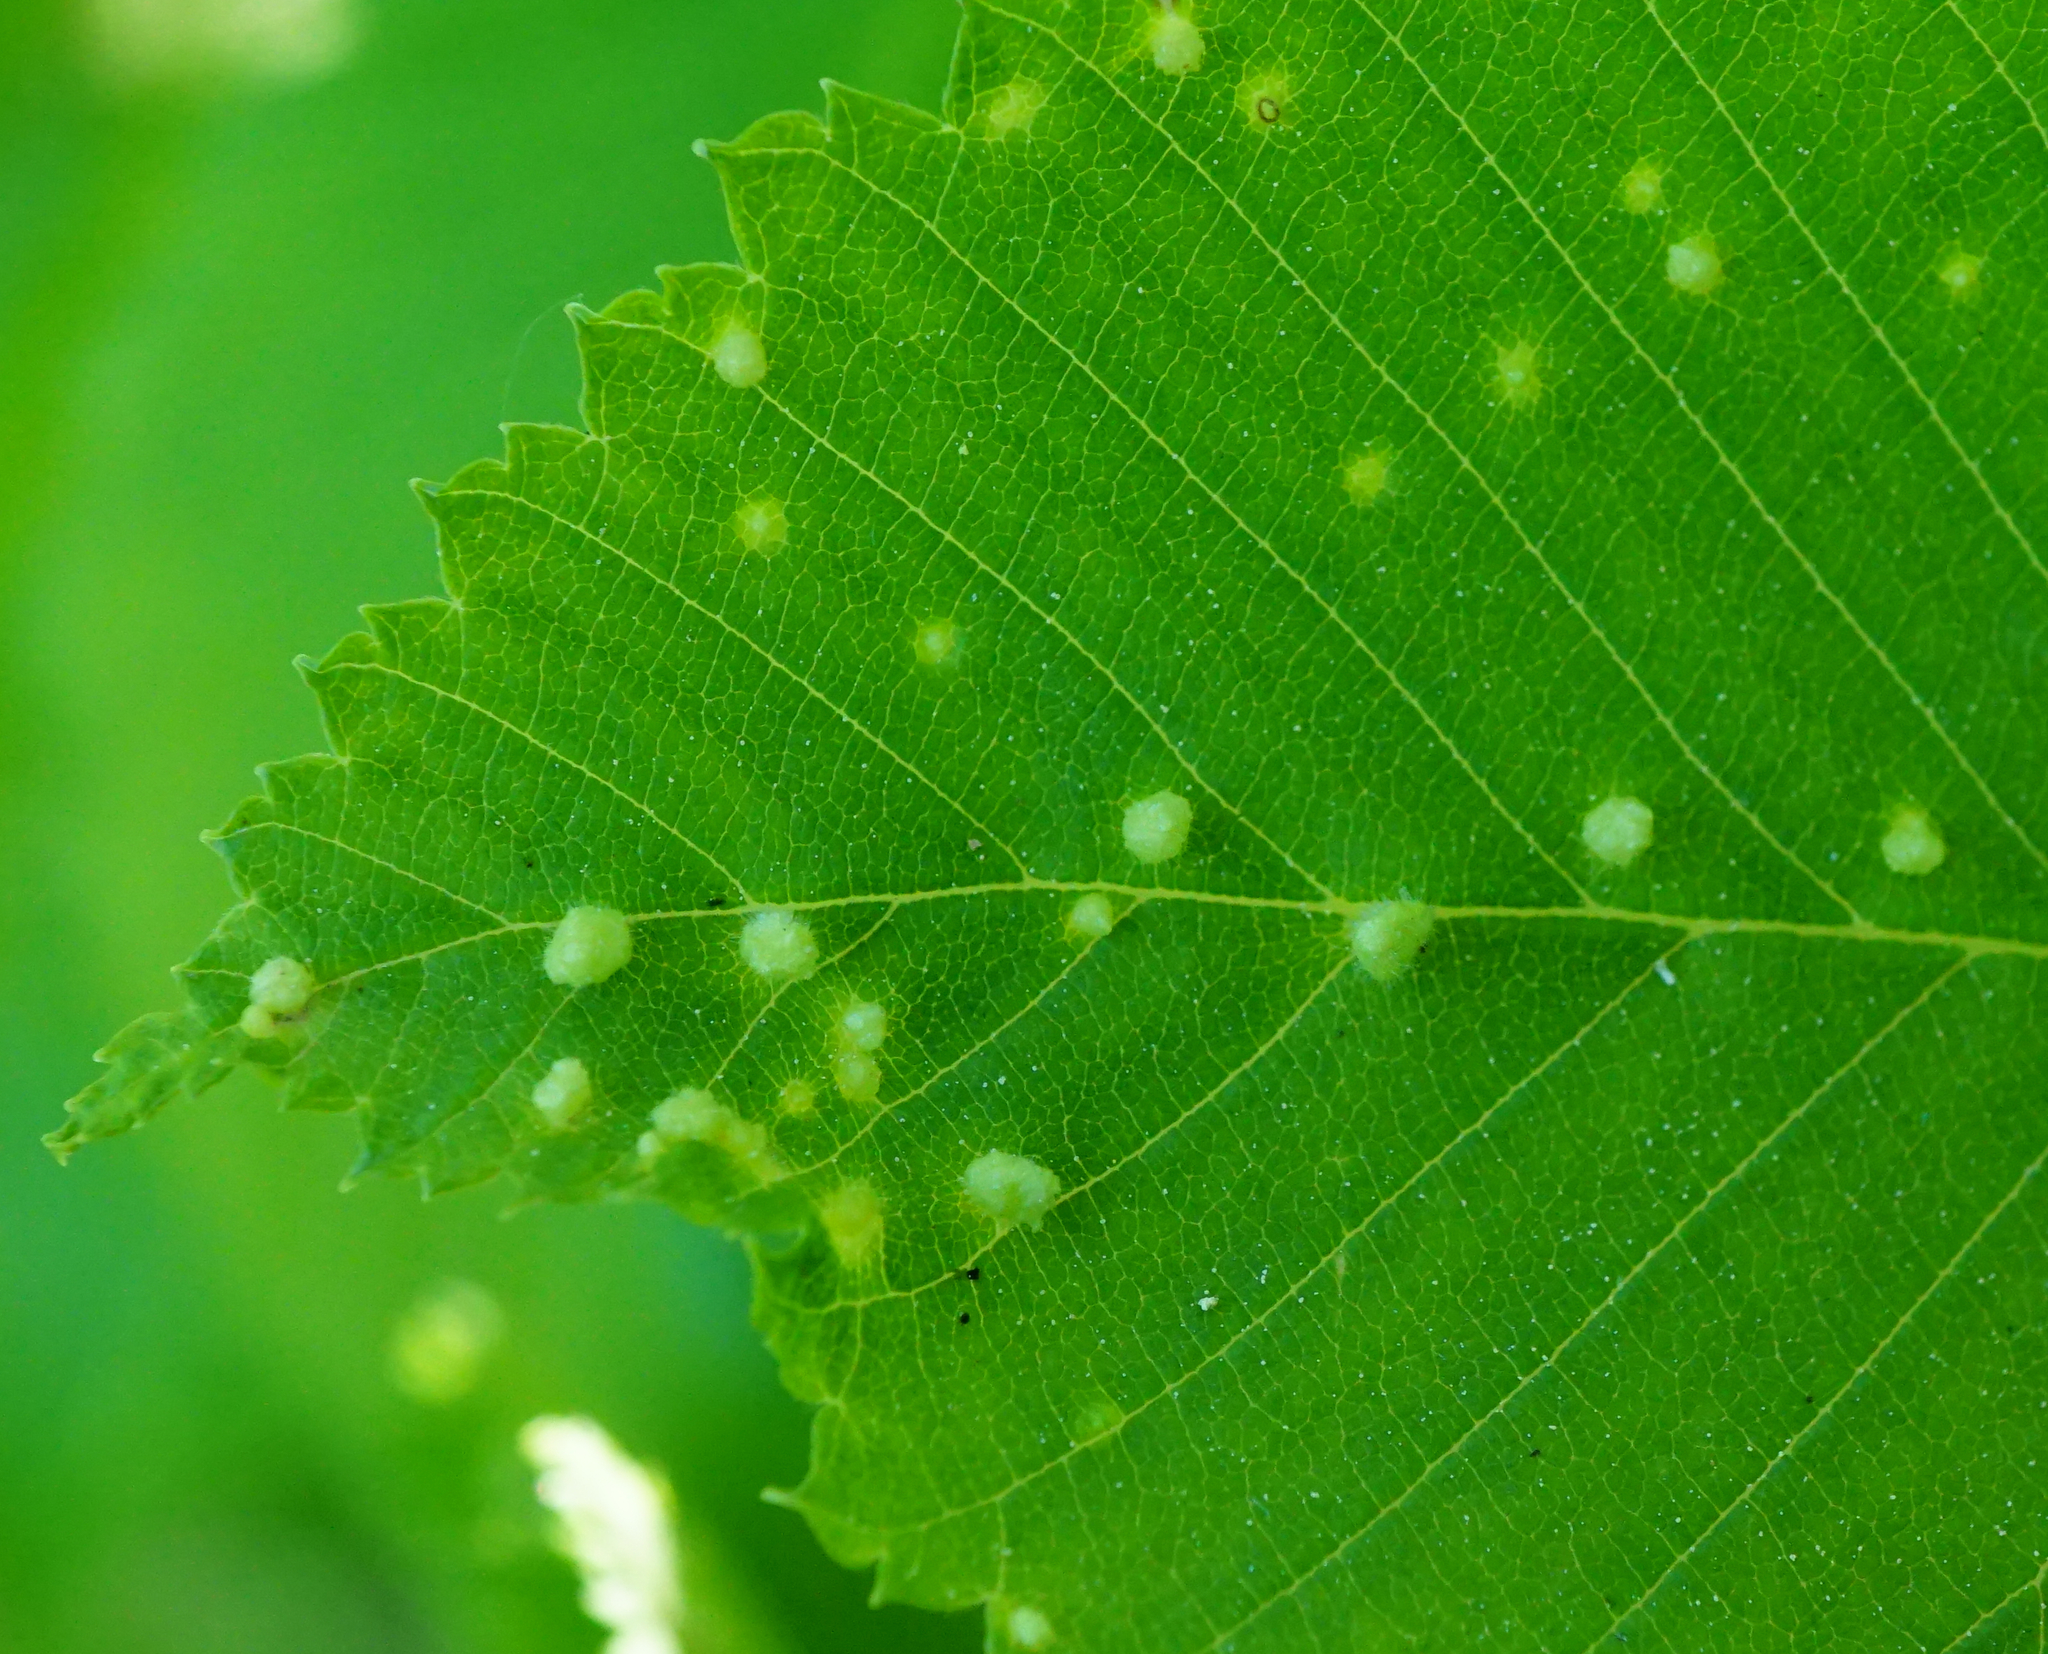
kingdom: Animalia
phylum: Arthropoda
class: Arachnida
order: Trombidiformes
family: Eriophyidae
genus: Aceria
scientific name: Aceria brevipunctata
